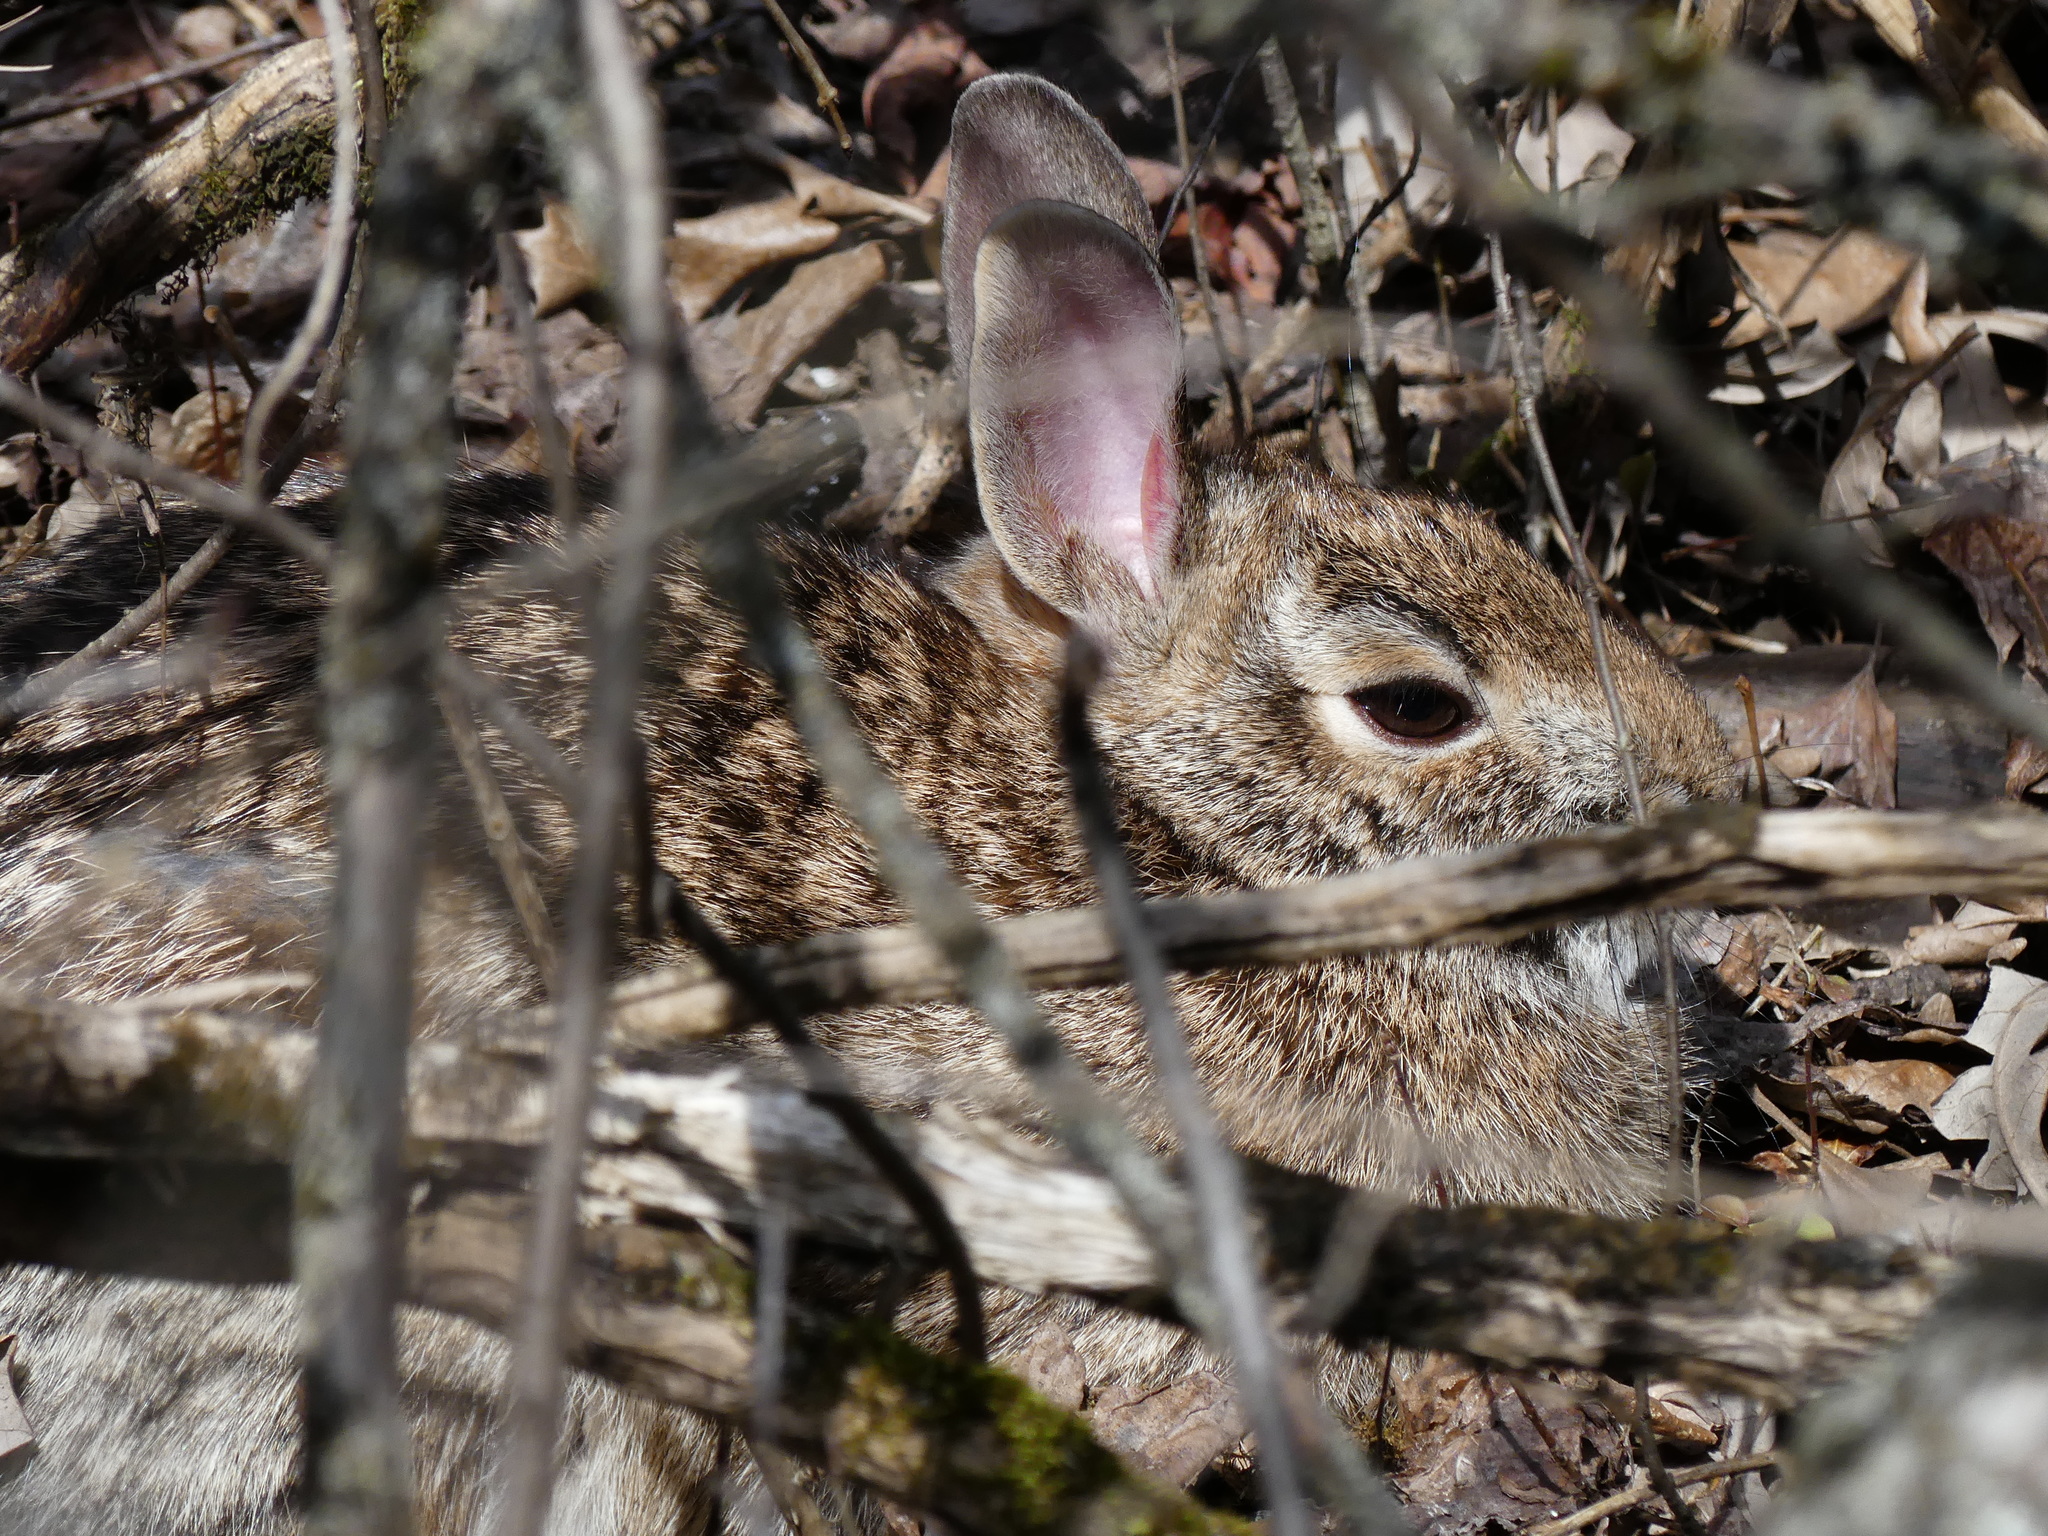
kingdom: Animalia
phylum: Chordata
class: Mammalia
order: Lagomorpha
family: Leporidae
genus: Sylvilagus
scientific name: Sylvilagus floridanus
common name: Eastern cottontail
